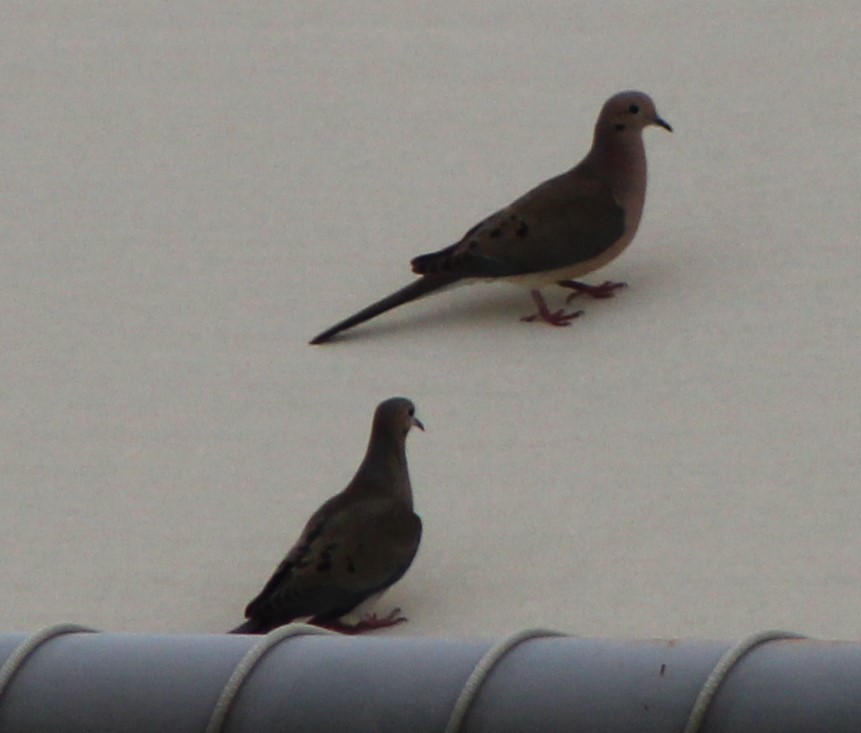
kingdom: Animalia
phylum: Chordata
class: Aves
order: Columbiformes
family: Columbidae
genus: Zenaida
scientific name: Zenaida macroura
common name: Mourning dove
